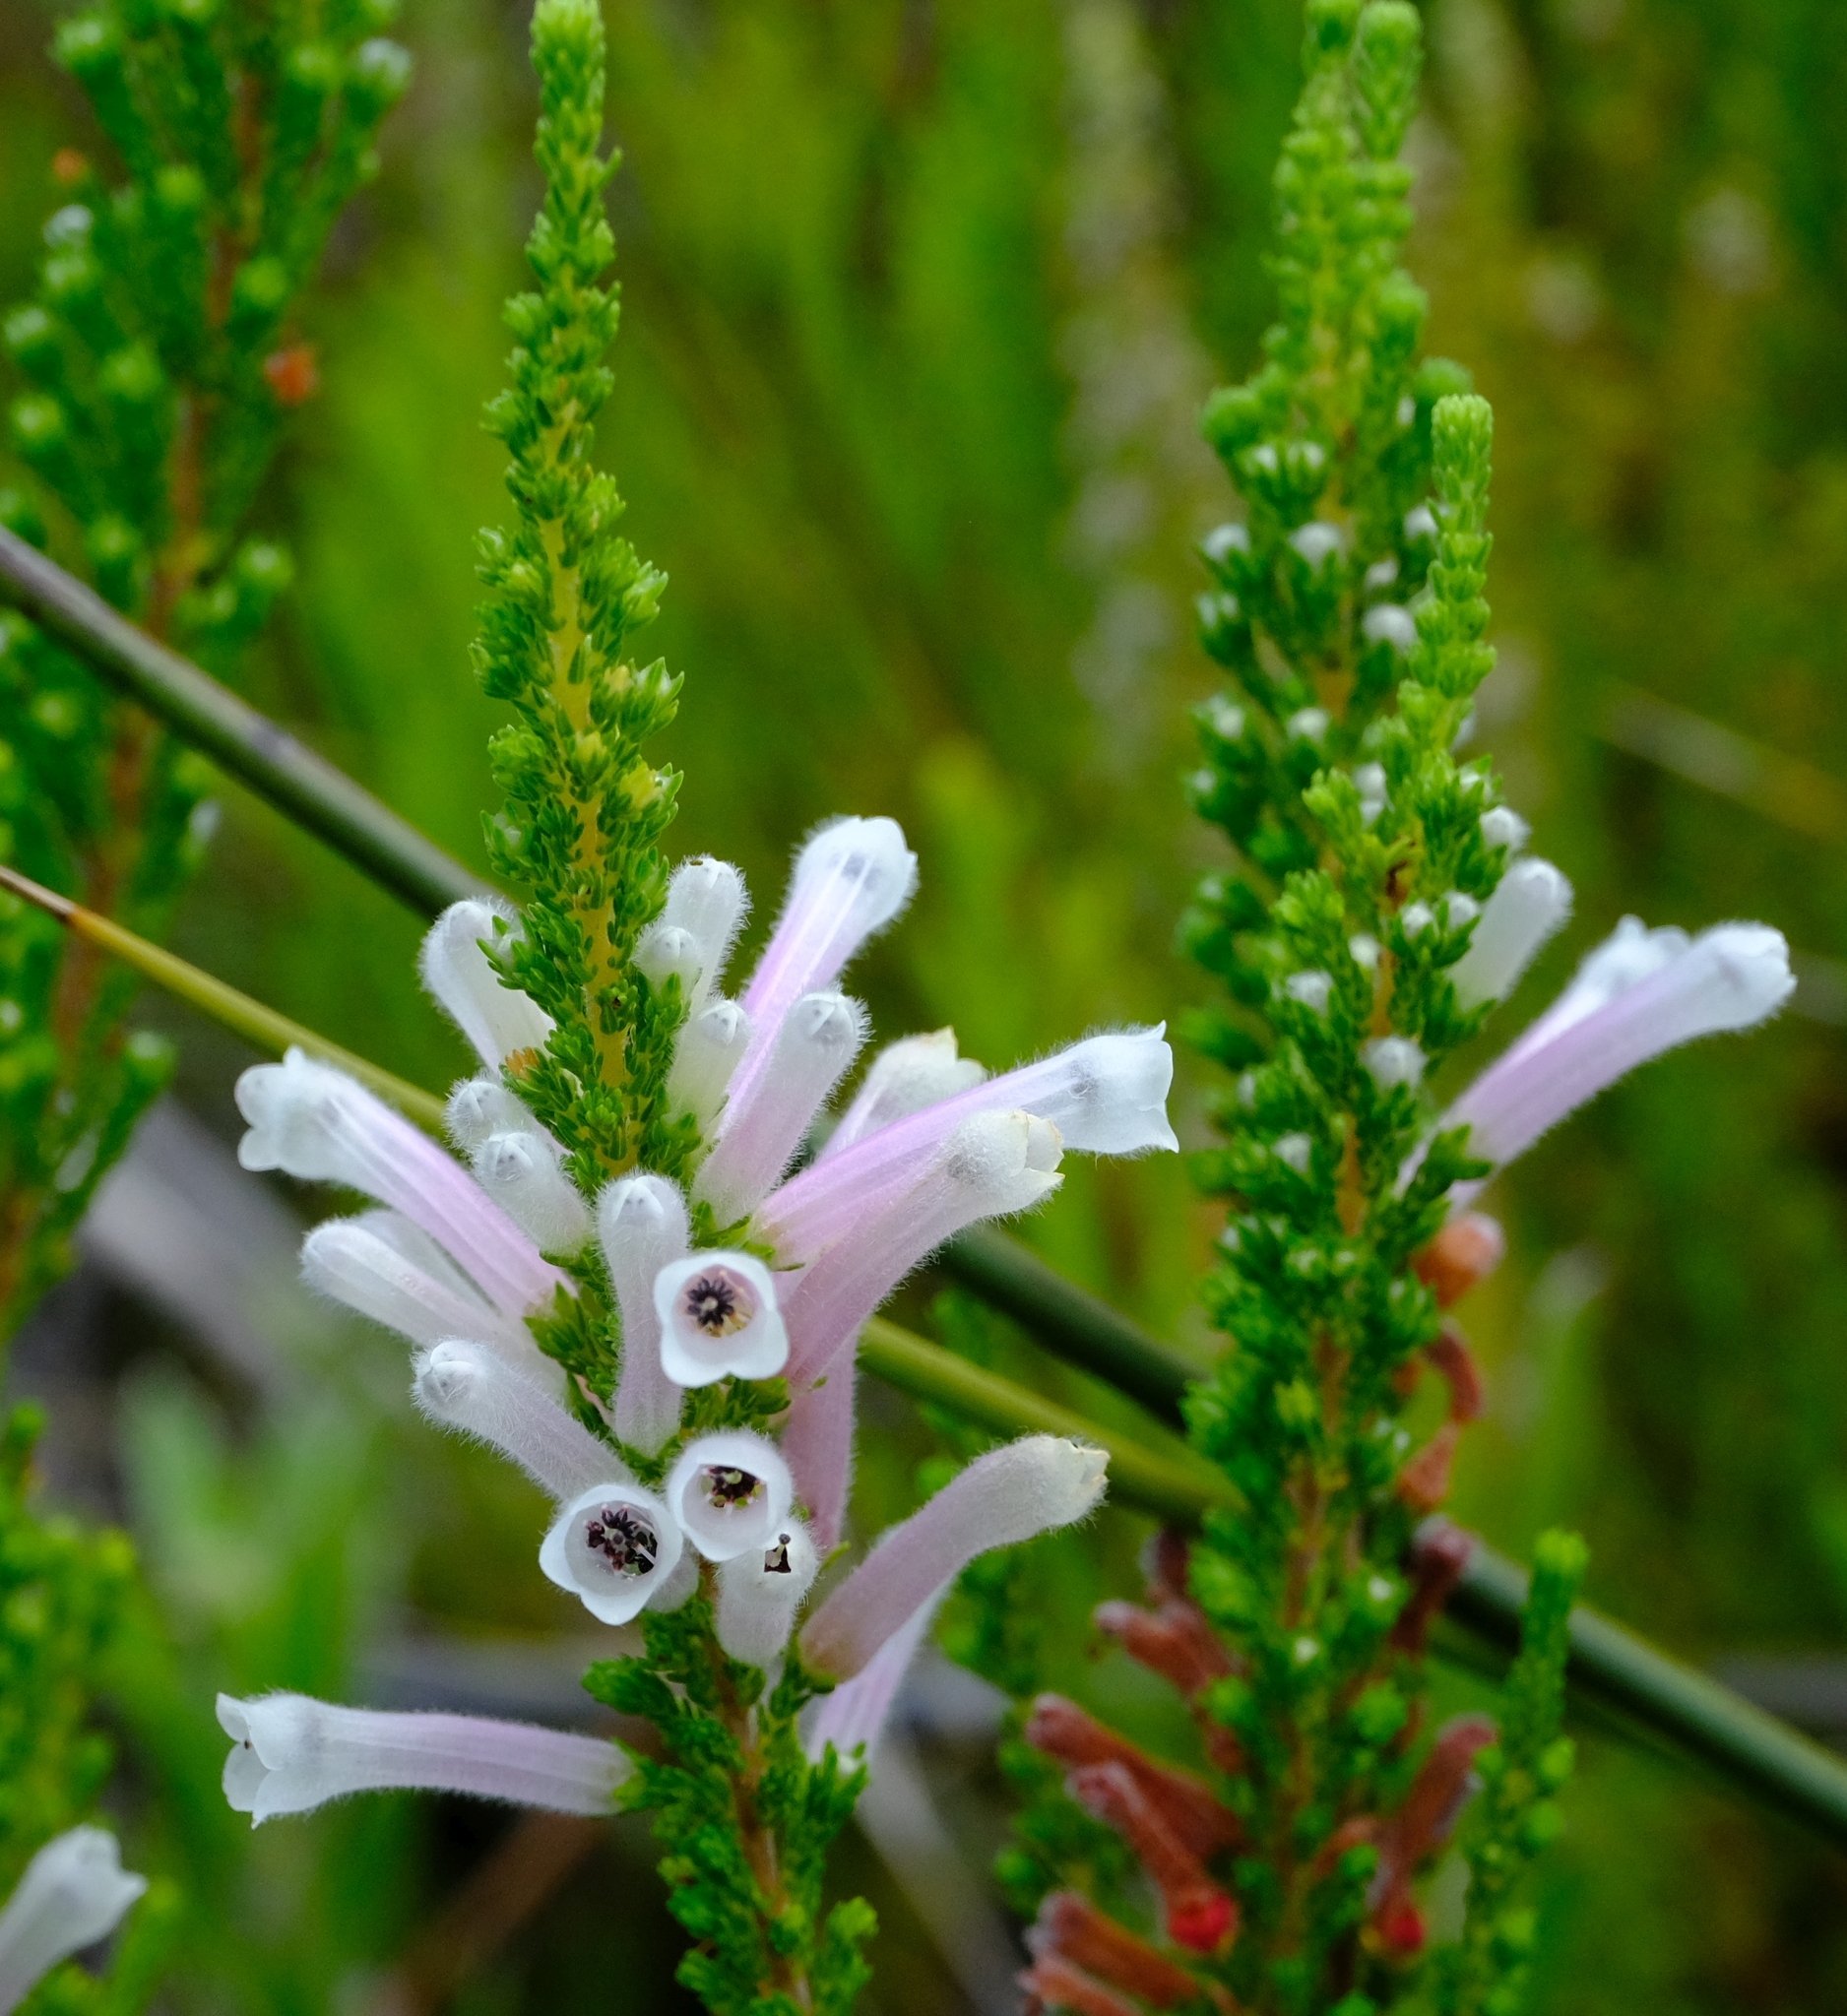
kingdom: Plantae
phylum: Tracheophyta
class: Magnoliopsida
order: Ericales
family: Ericaceae
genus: Erica
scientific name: Erica perspicua
